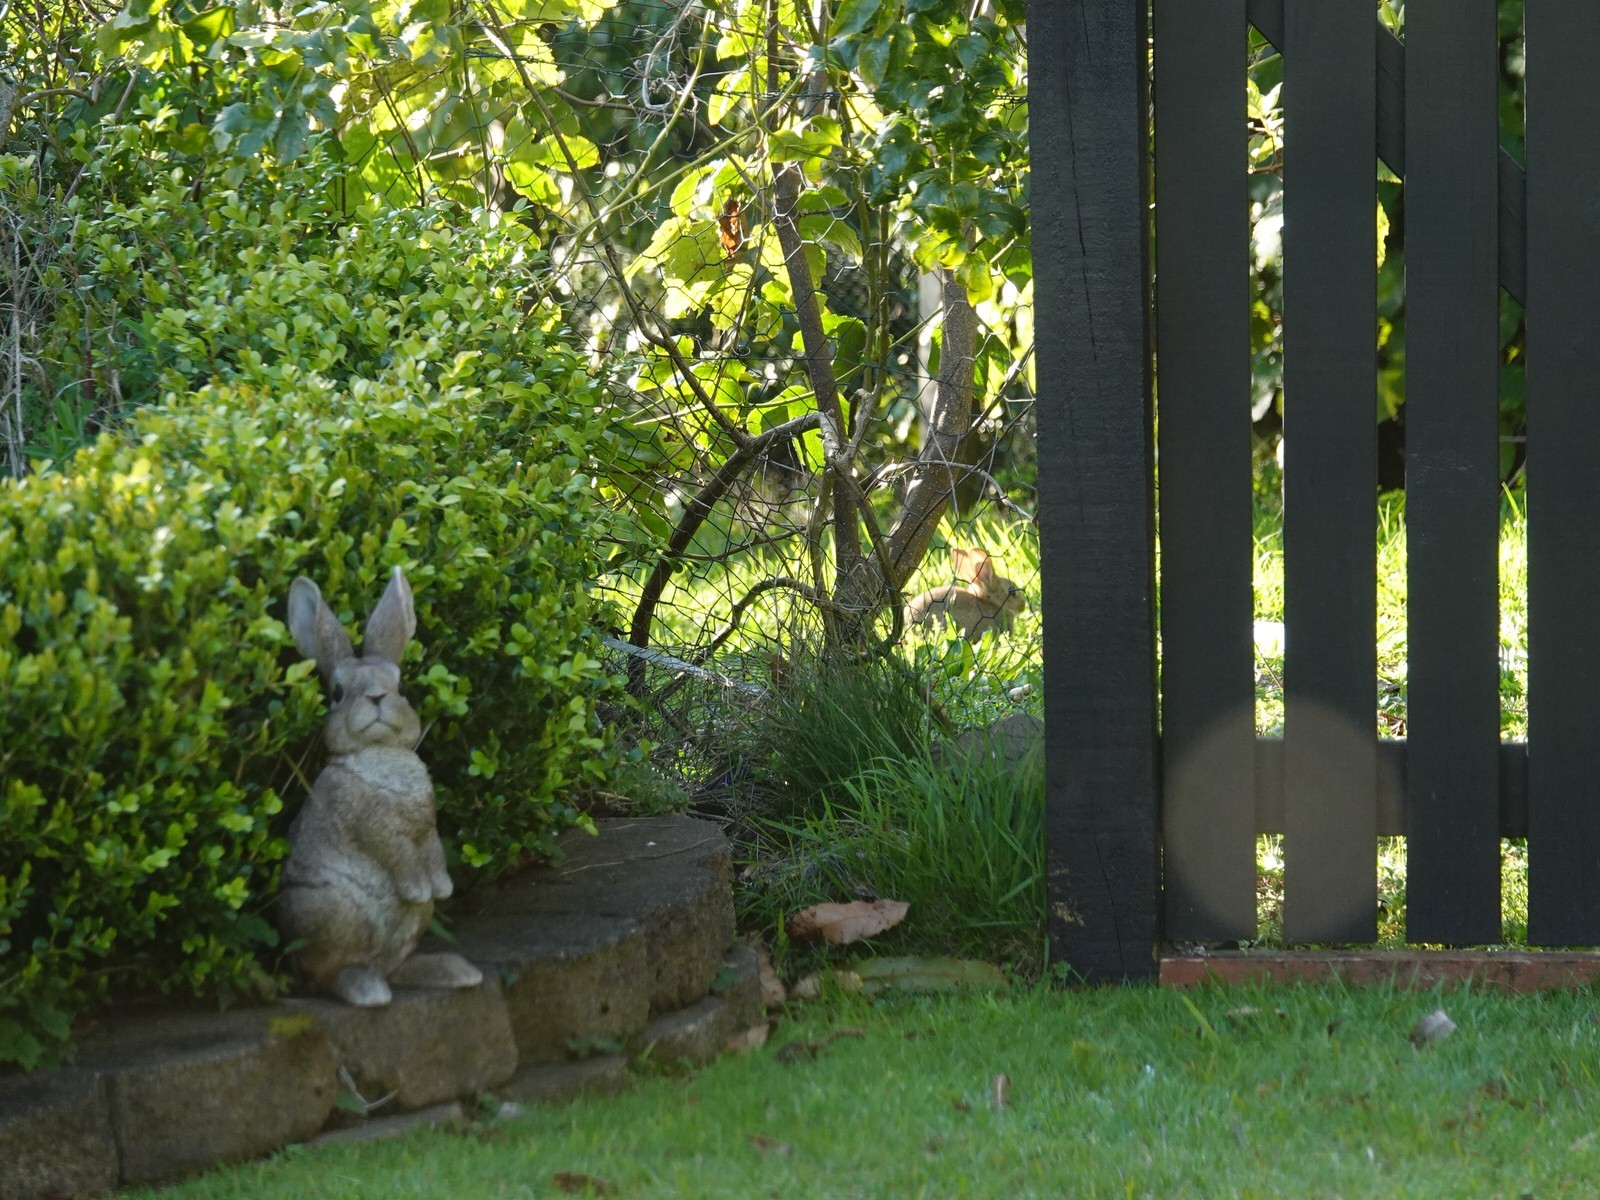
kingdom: Animalia
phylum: Chordata
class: Mammalia
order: Lagomorpha
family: Leporidae
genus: Oryctolagus
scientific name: Oryctolagus cuniculus
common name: European rabbit
